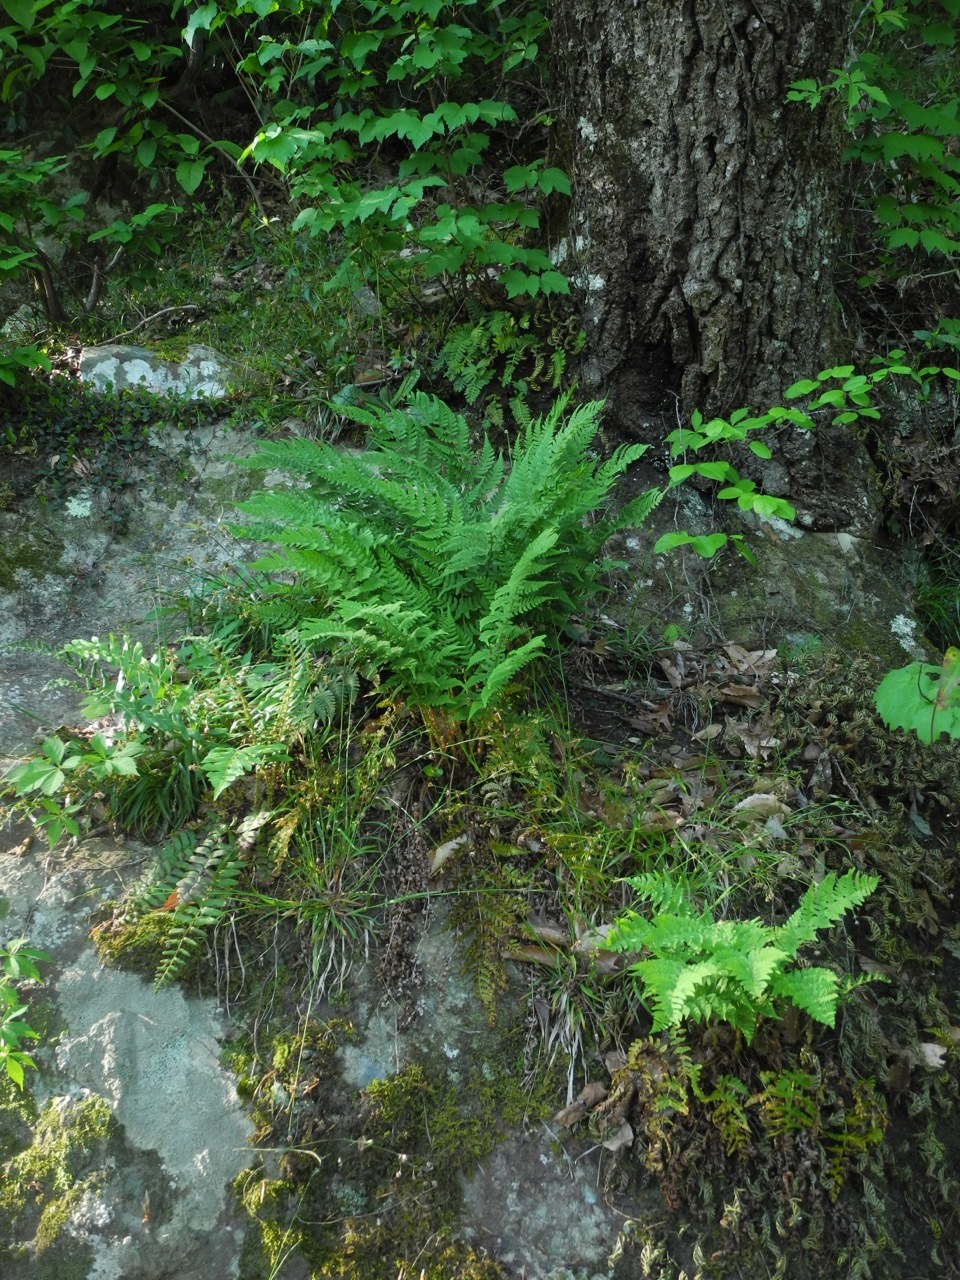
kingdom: Plantae
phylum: Tracheophyta
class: Polypodiopsida
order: Polypodiales
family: Dryopteridaceae
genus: Dryopteris
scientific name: Dryopteris marginalis
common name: Marginal wood fern
